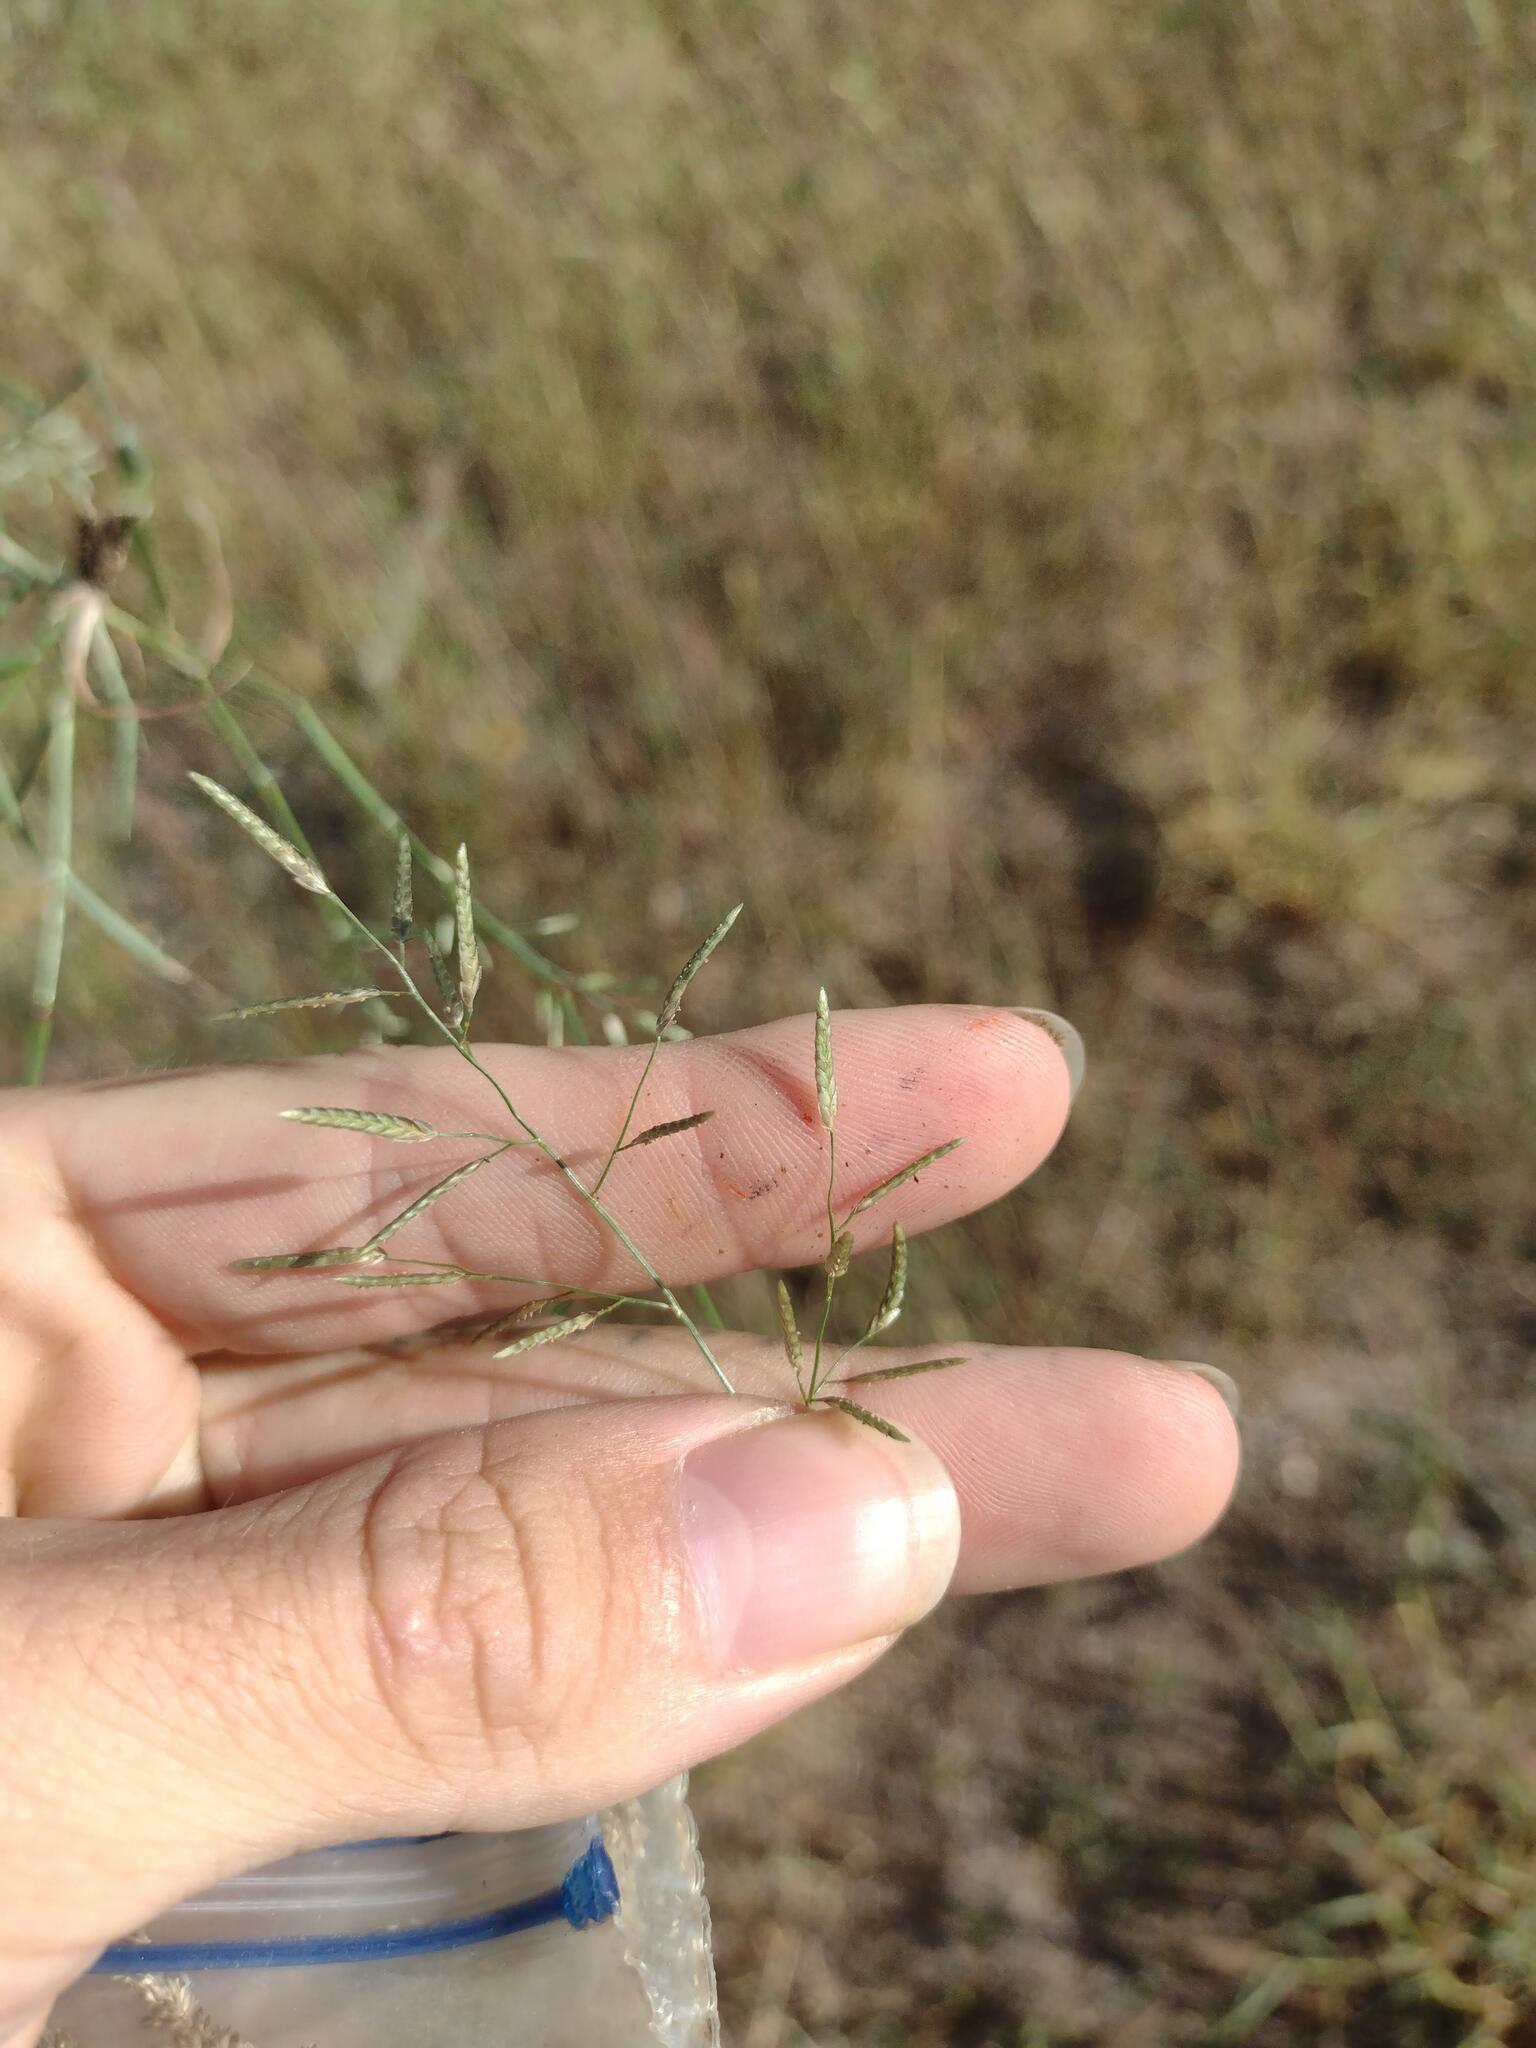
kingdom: Plantae
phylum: Tracheophyta
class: Liliopsida
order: Poales
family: Poaceae
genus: Eragrostis
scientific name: Eragrostis barrelieri
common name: Mediterranean lovegrass
